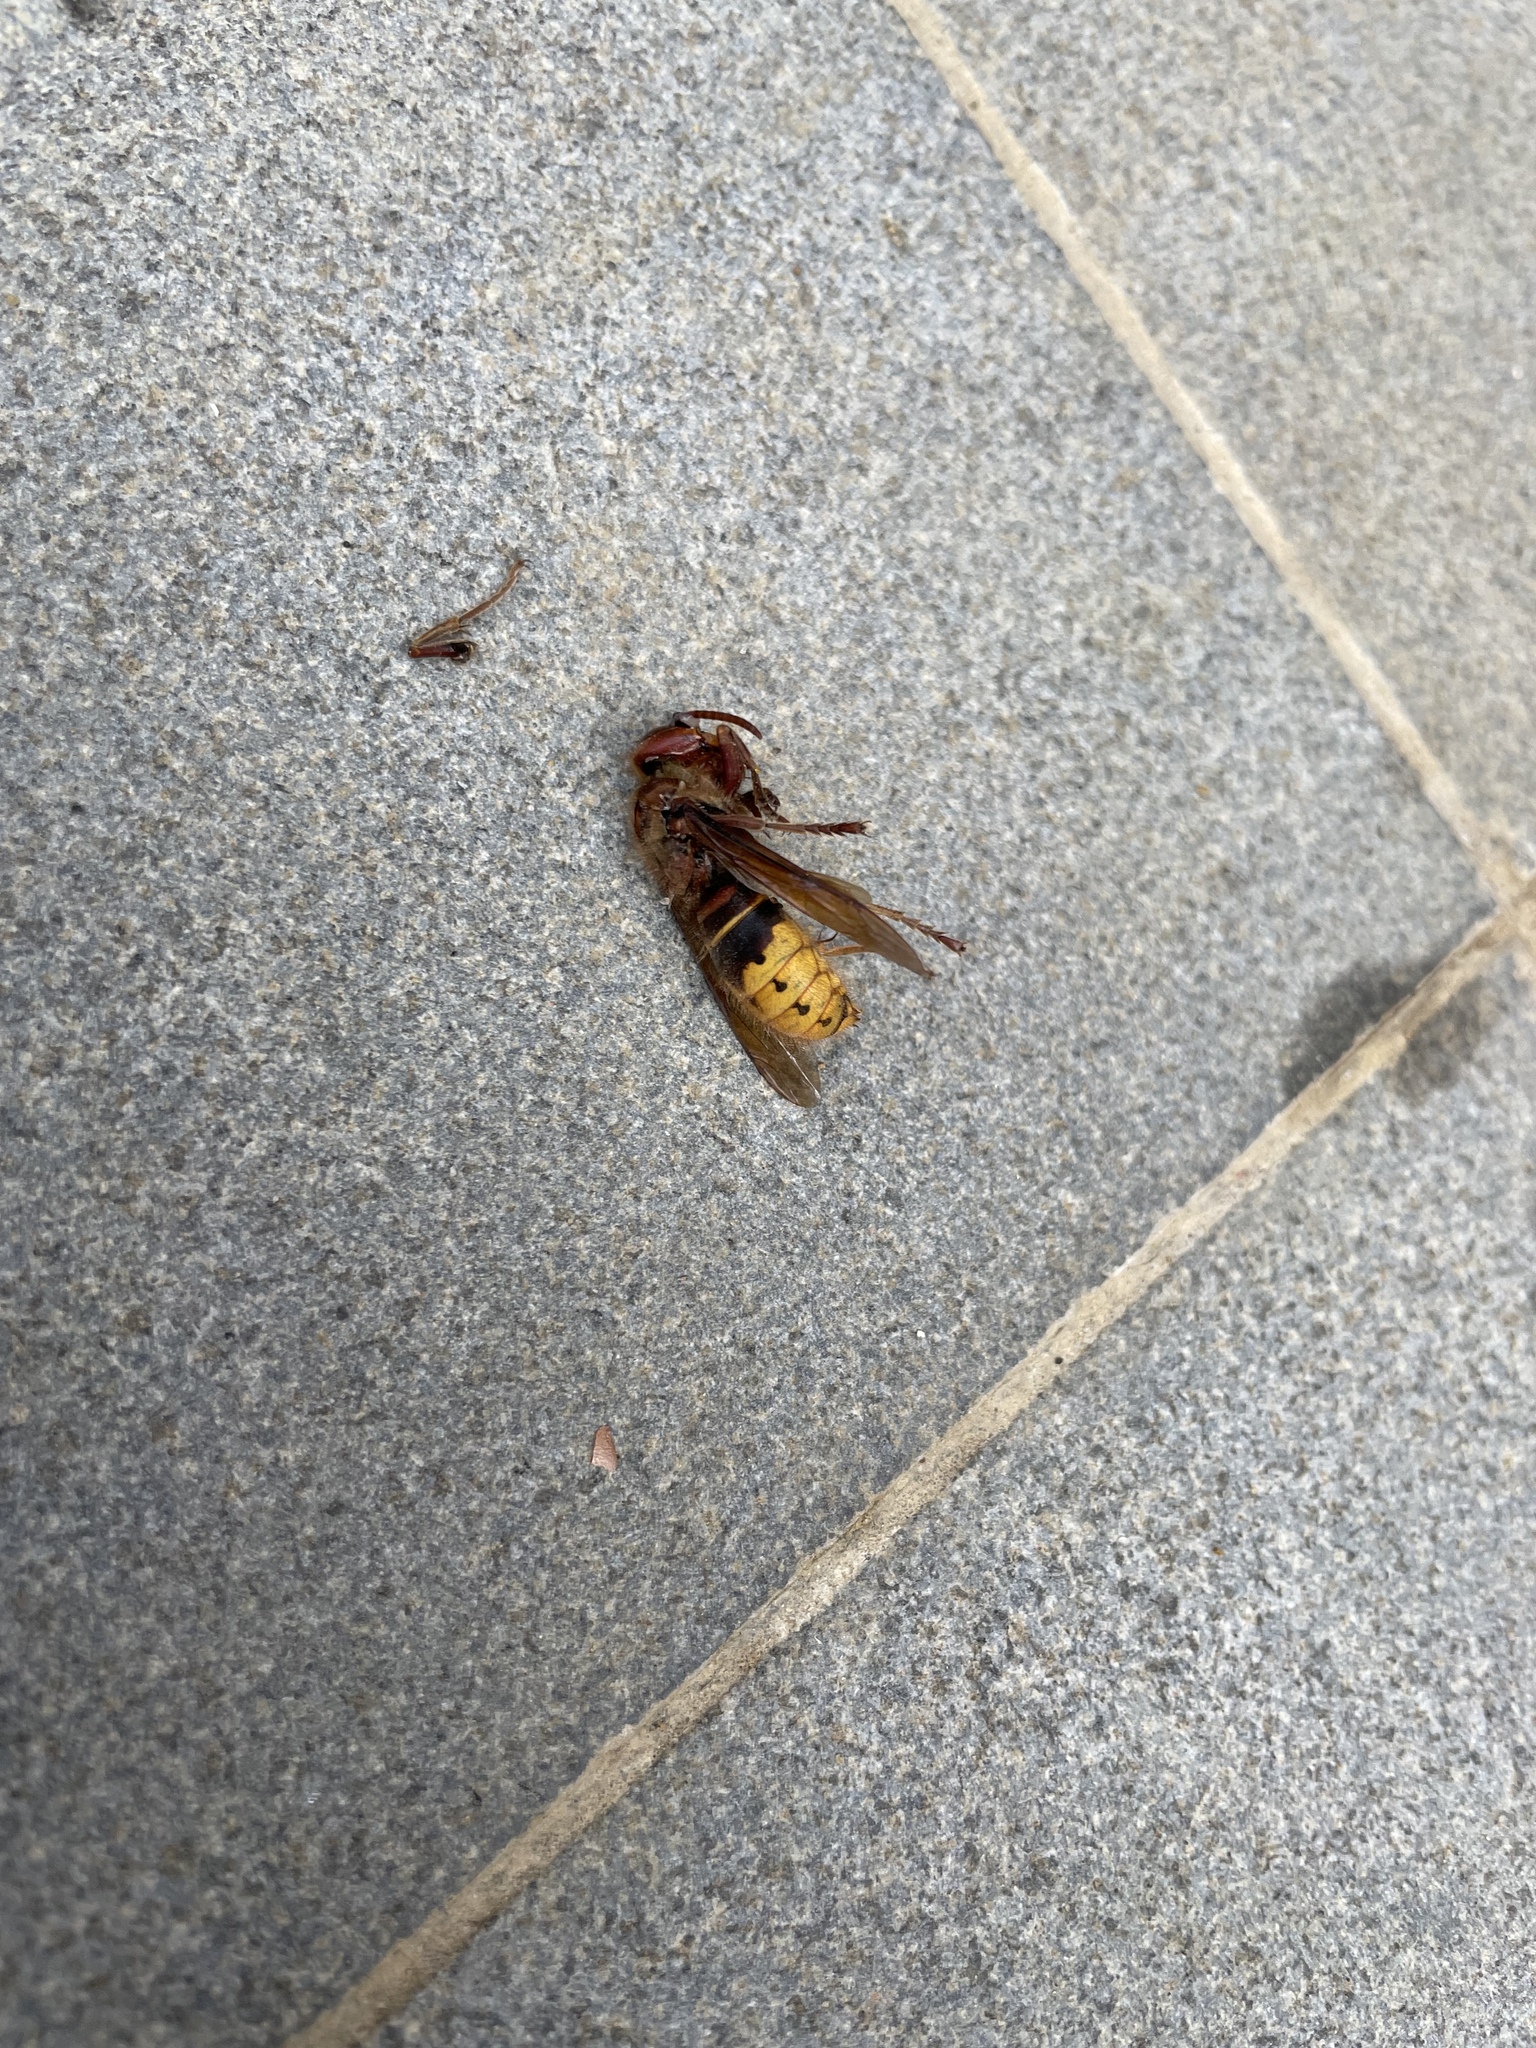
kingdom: Animalia
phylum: Arthropoda
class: Insecta
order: Hymenoptera
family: Vespidae
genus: Vespa
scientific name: Vespa crabro
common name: Hornet
